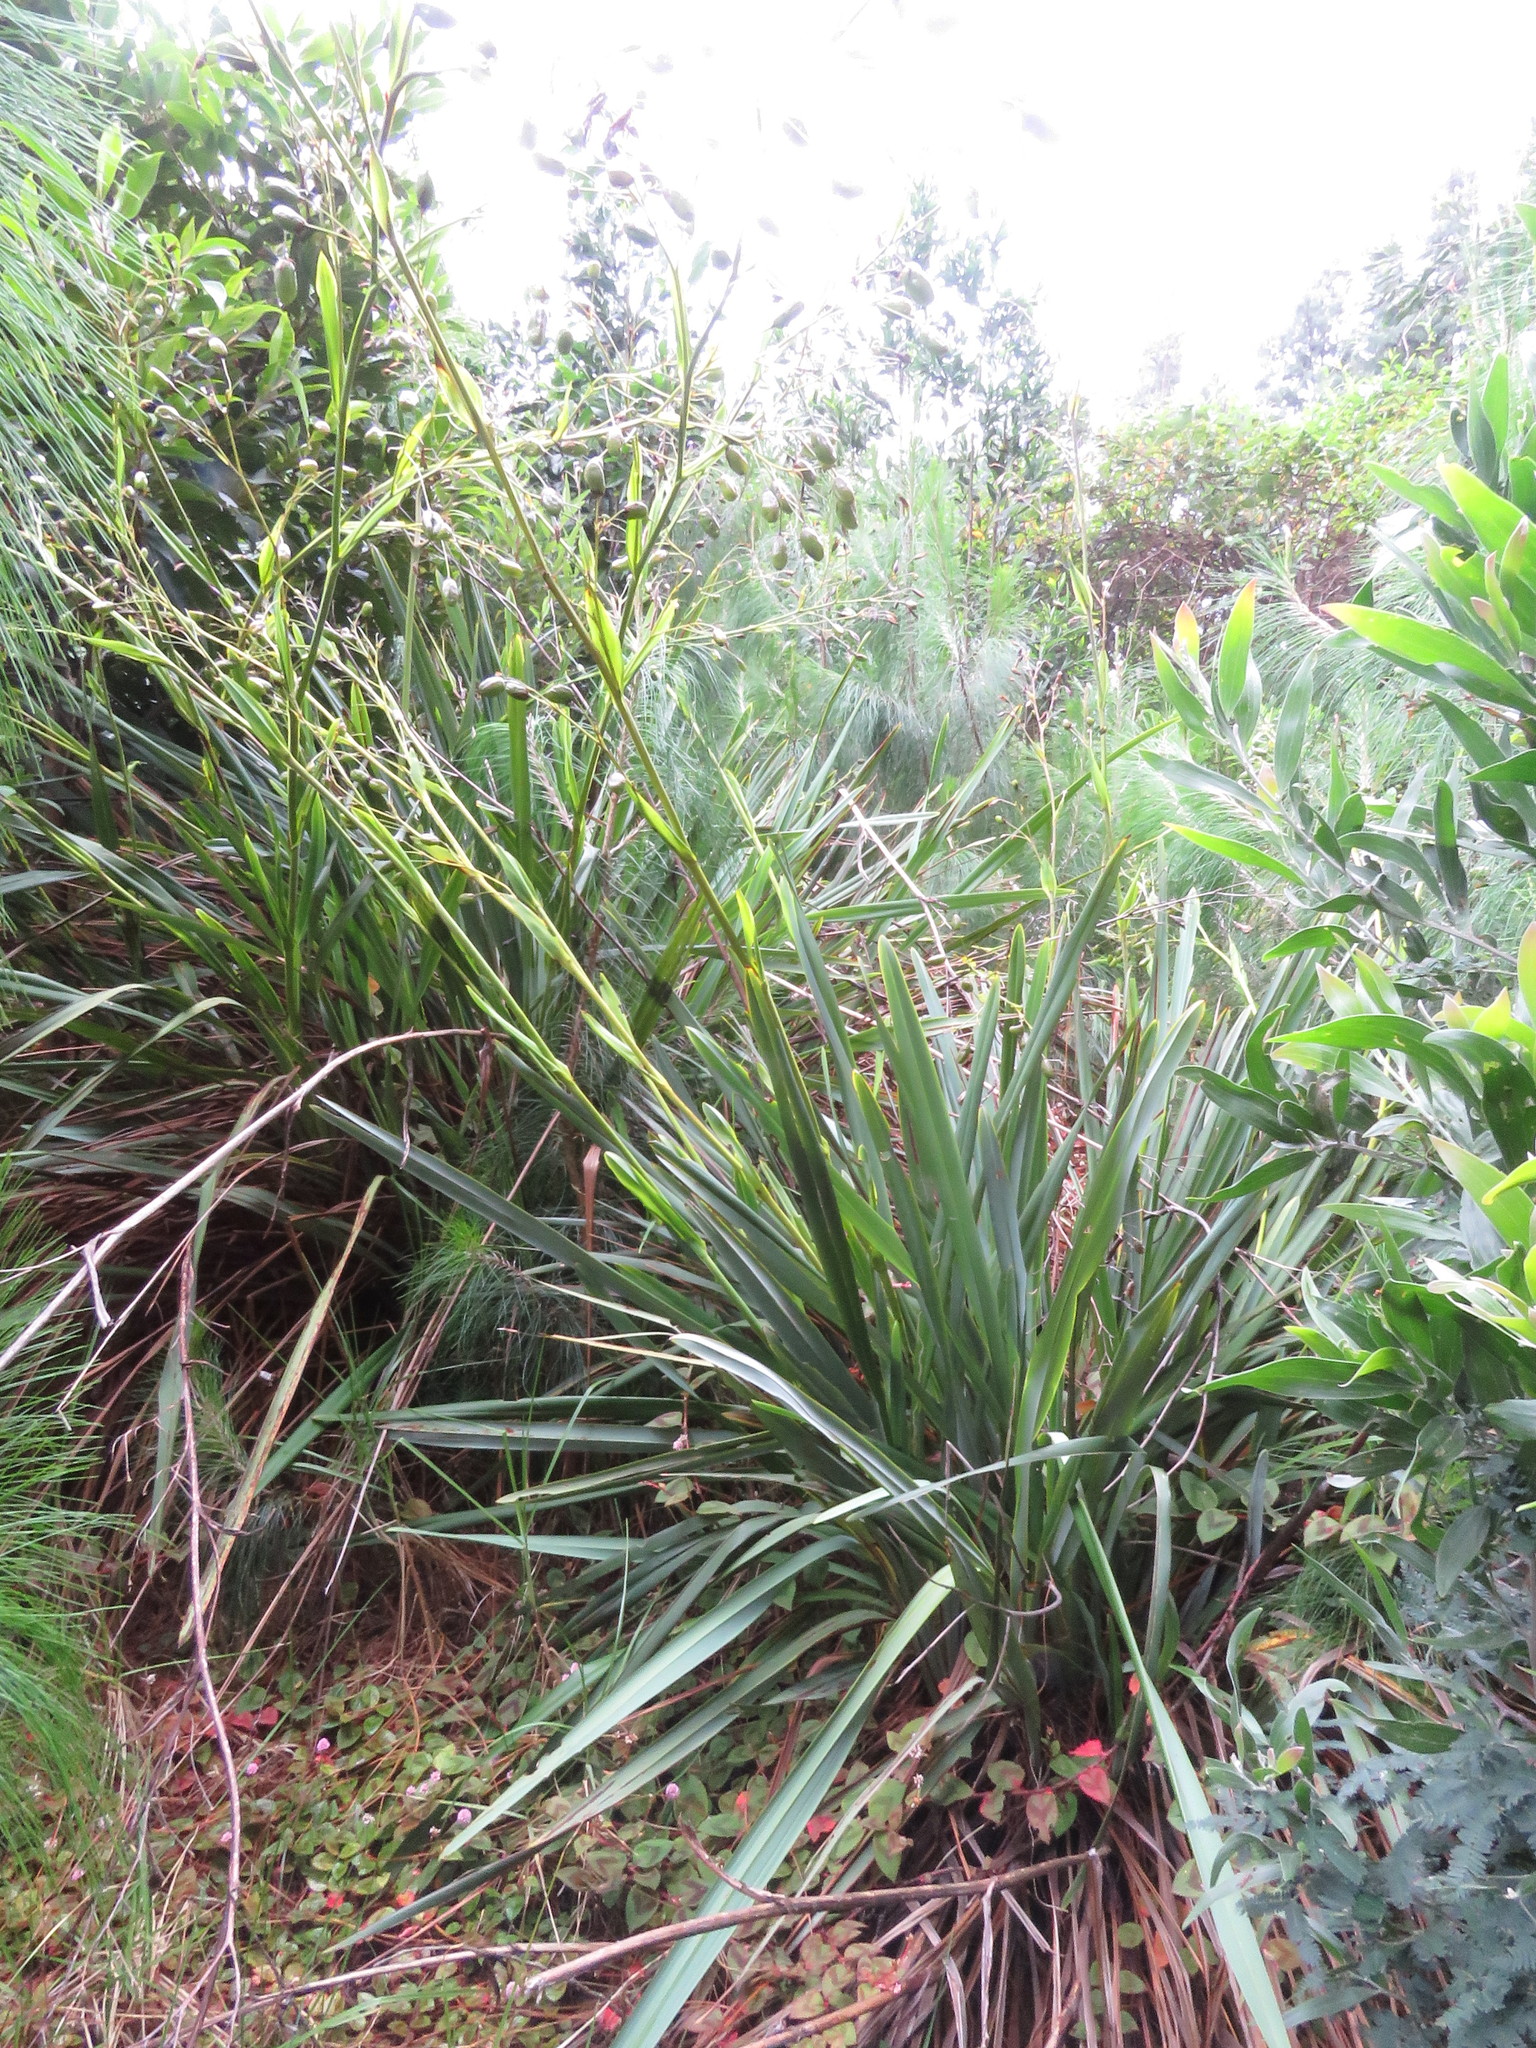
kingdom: Plantae
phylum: Tracheophyta
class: Liliopsida
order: Asparagales
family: Asphodelaceae
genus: Excremis
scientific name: Excremis coarctata
